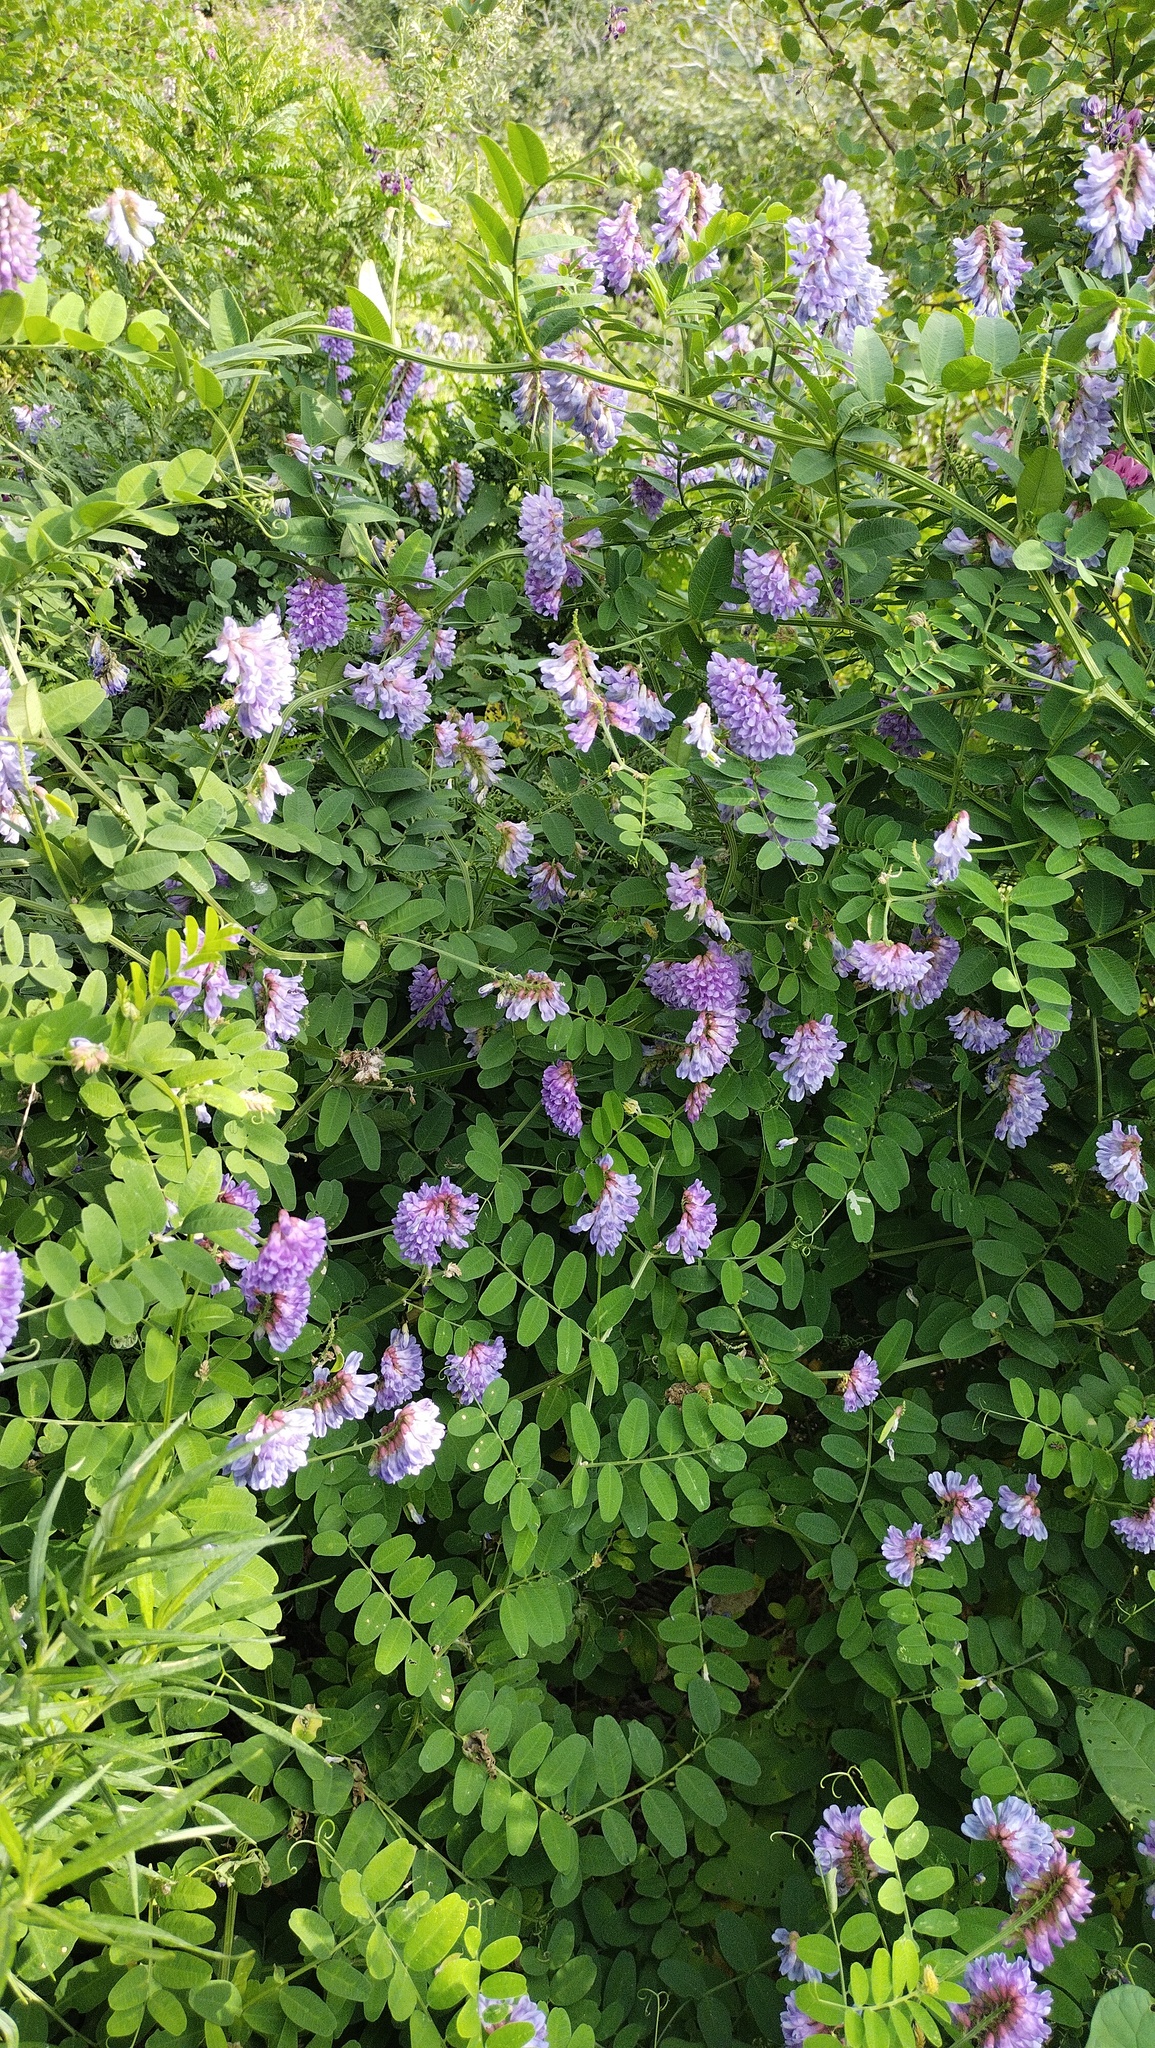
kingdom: Plantae
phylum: Tracheophyta
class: Magnoliopsida
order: Fabales
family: Fabaceae
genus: Vicia
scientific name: Vicia amurensis
